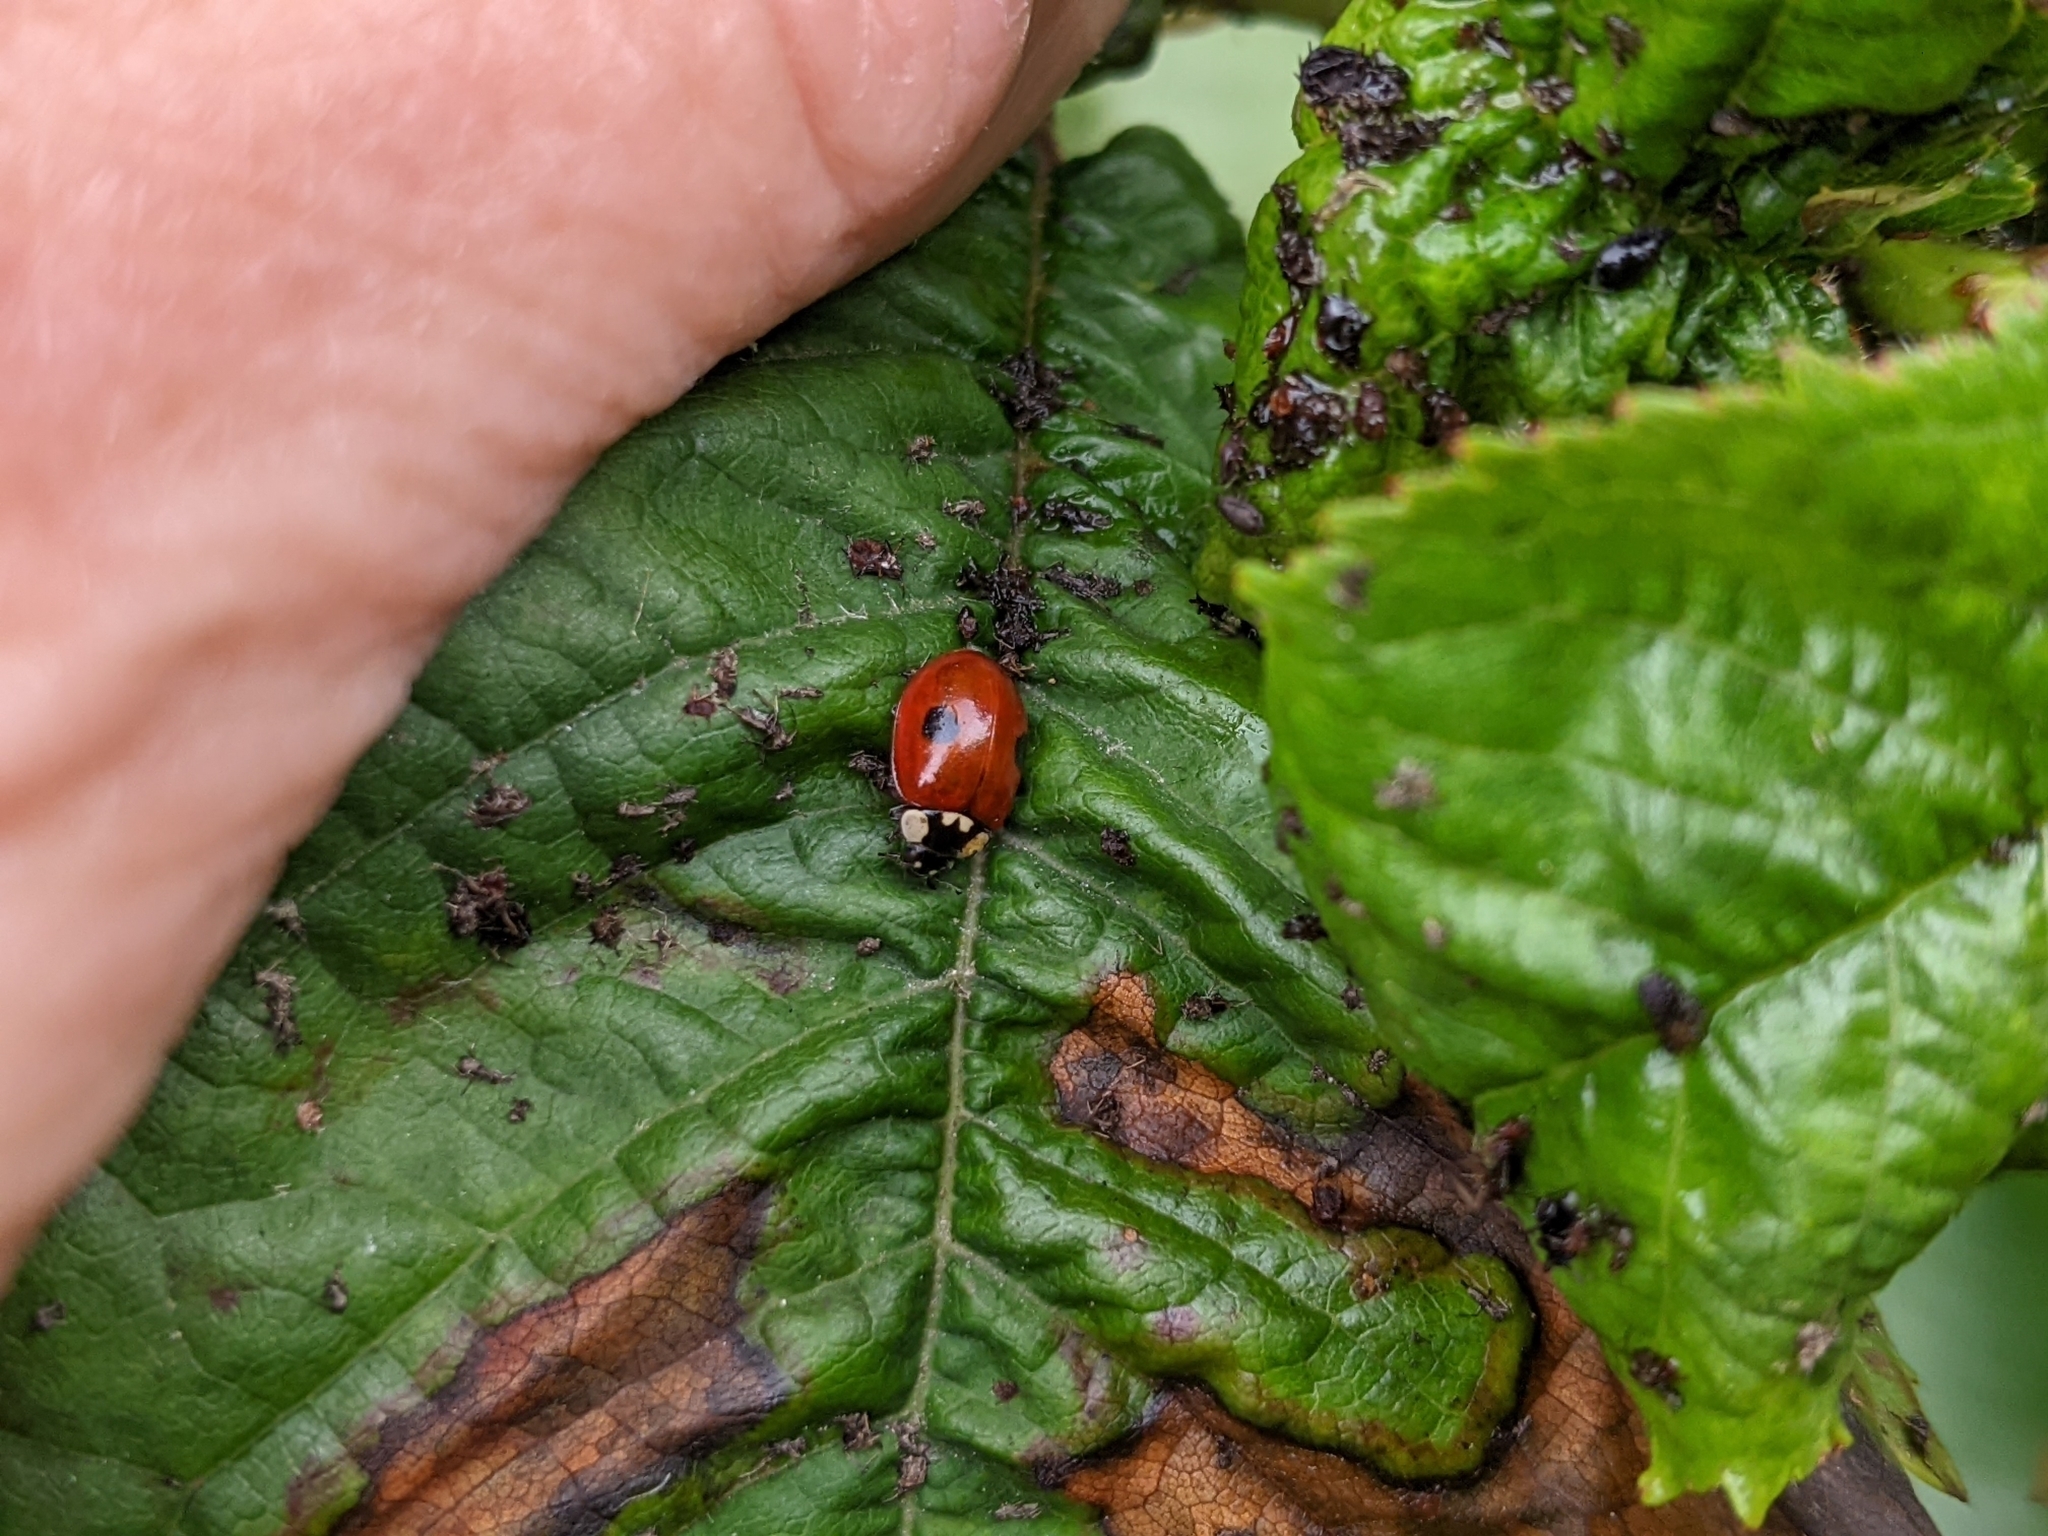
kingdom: Animalia
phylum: Arthropoda
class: Insecta
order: Coleoptera
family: Coccinellidae
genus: Adalia
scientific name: Adalia bipunctata
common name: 2-spot ladybird
